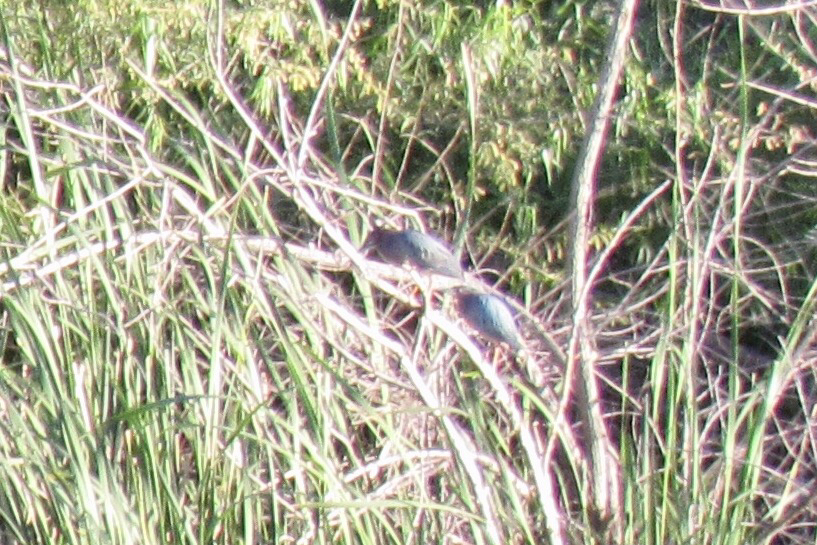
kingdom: Animalia
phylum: Chordata
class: Aves
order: Pelecaniformes
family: Ardeidae
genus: Butorides
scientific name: Butorides virescens
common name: Green heron
